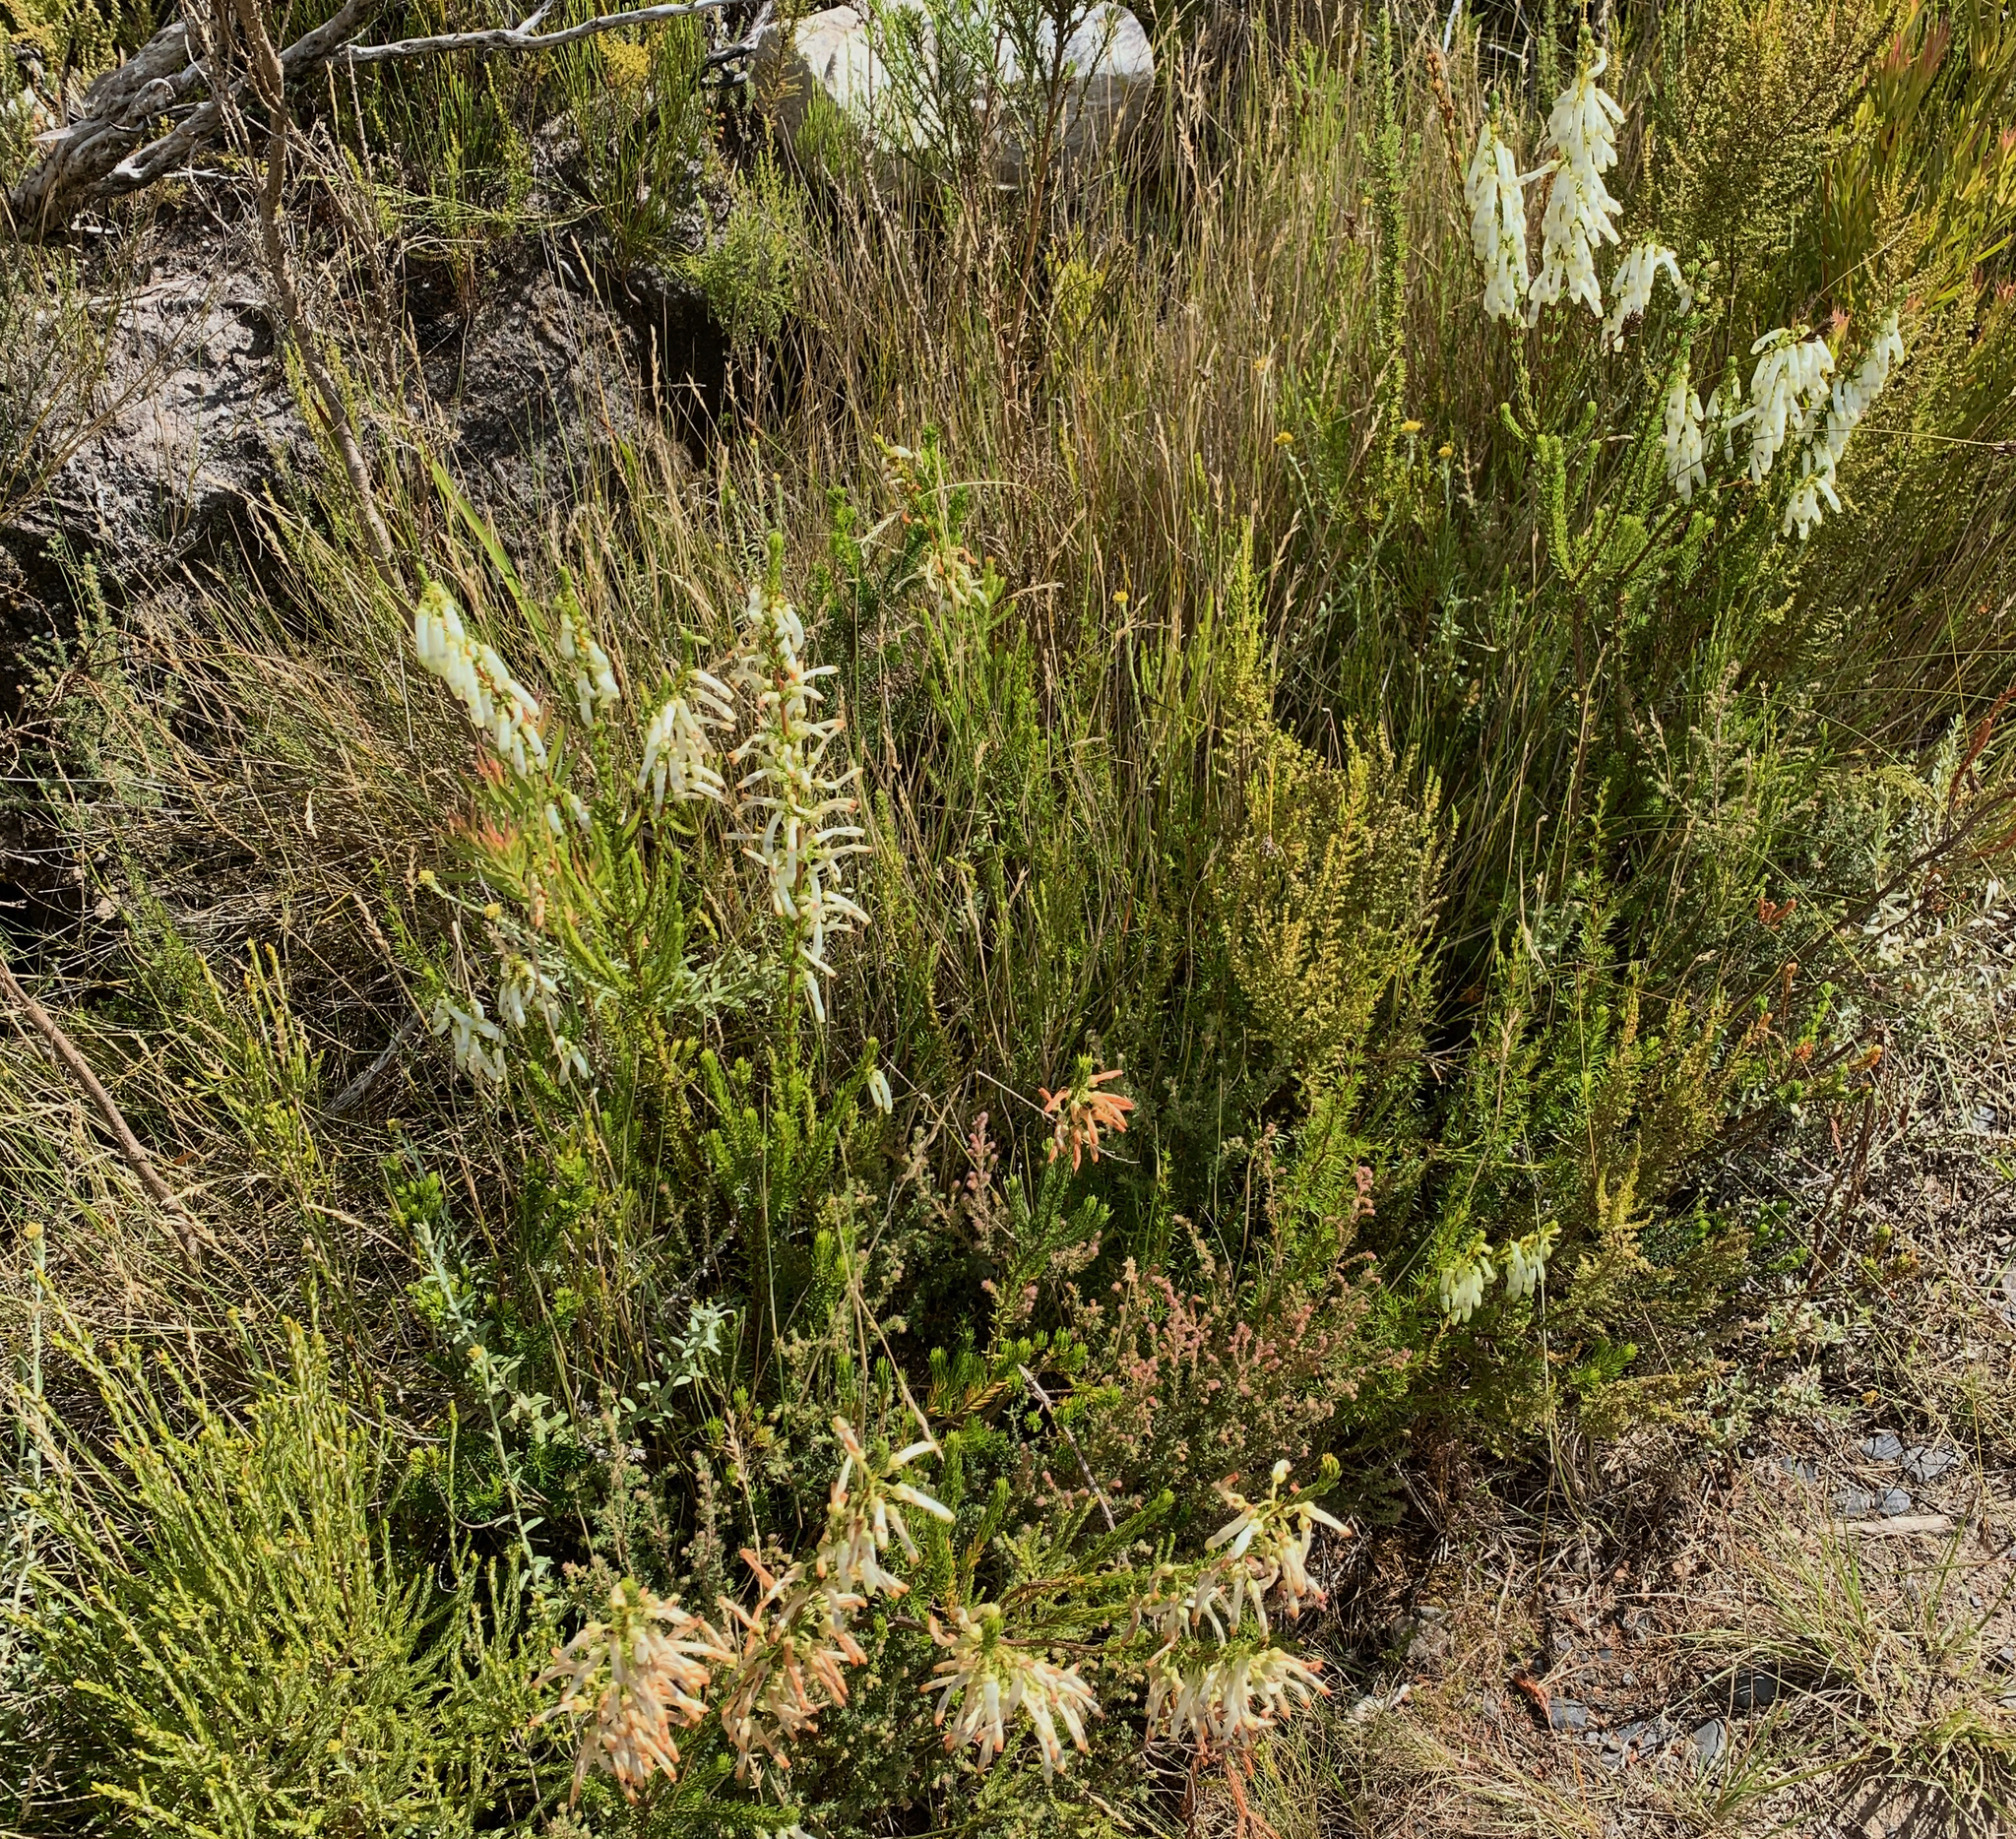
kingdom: Plantae
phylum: Tracheophyta
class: Magnoliopsida
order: Ericales
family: Ericaceae
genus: Erica
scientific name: Erica mammosa
